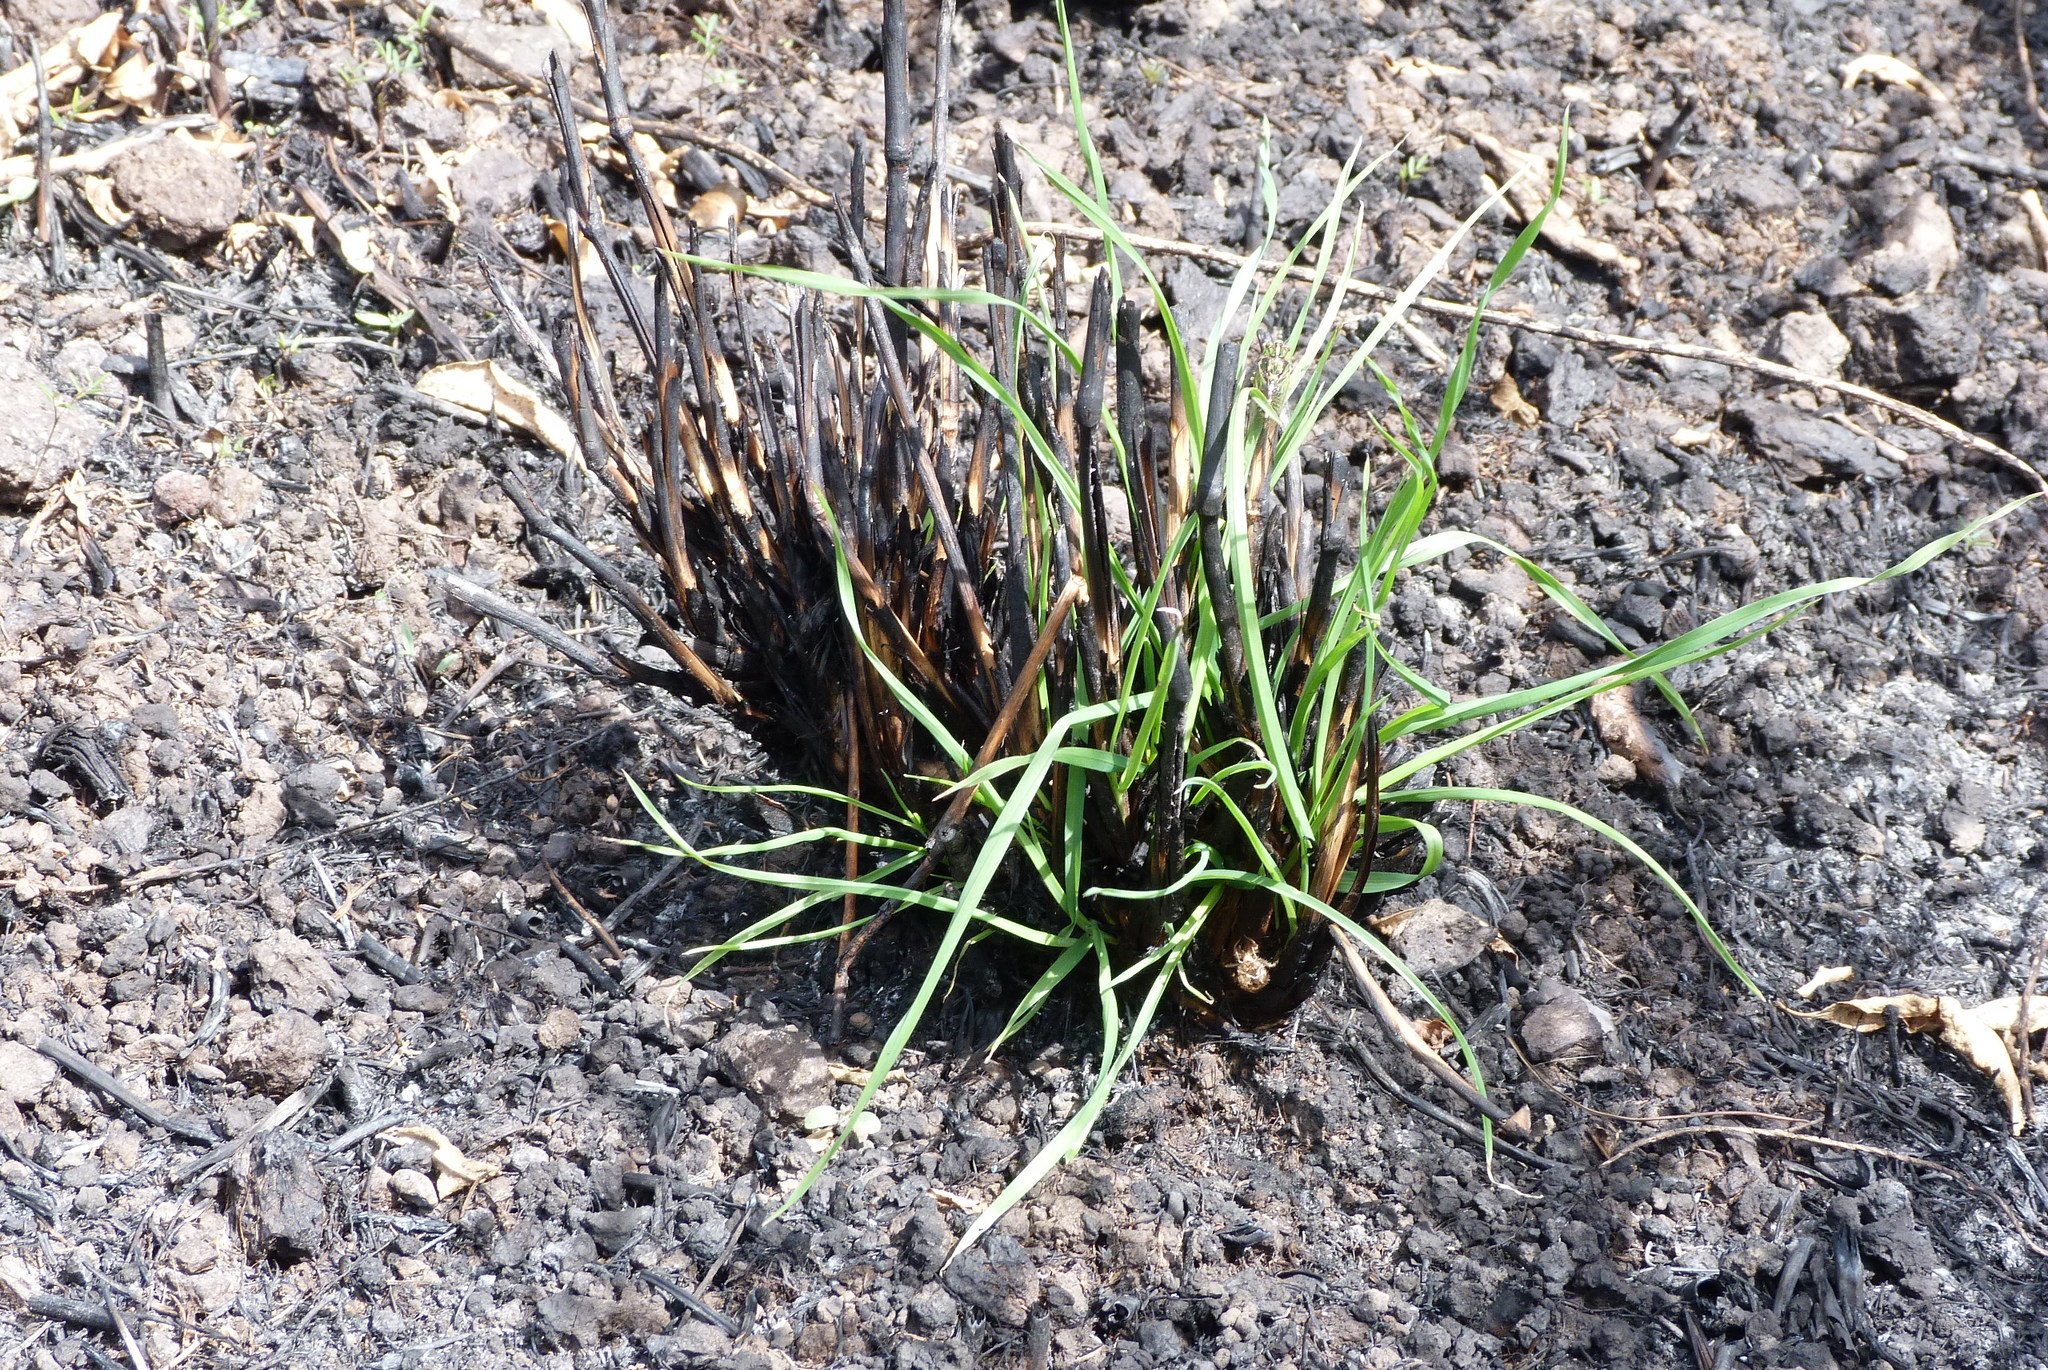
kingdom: Plantae
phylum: Tracheophyta
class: Liliopsida
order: Poales
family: Poaceae
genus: Dactylis
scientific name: Dactylis glomerata
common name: Orchardgrass
